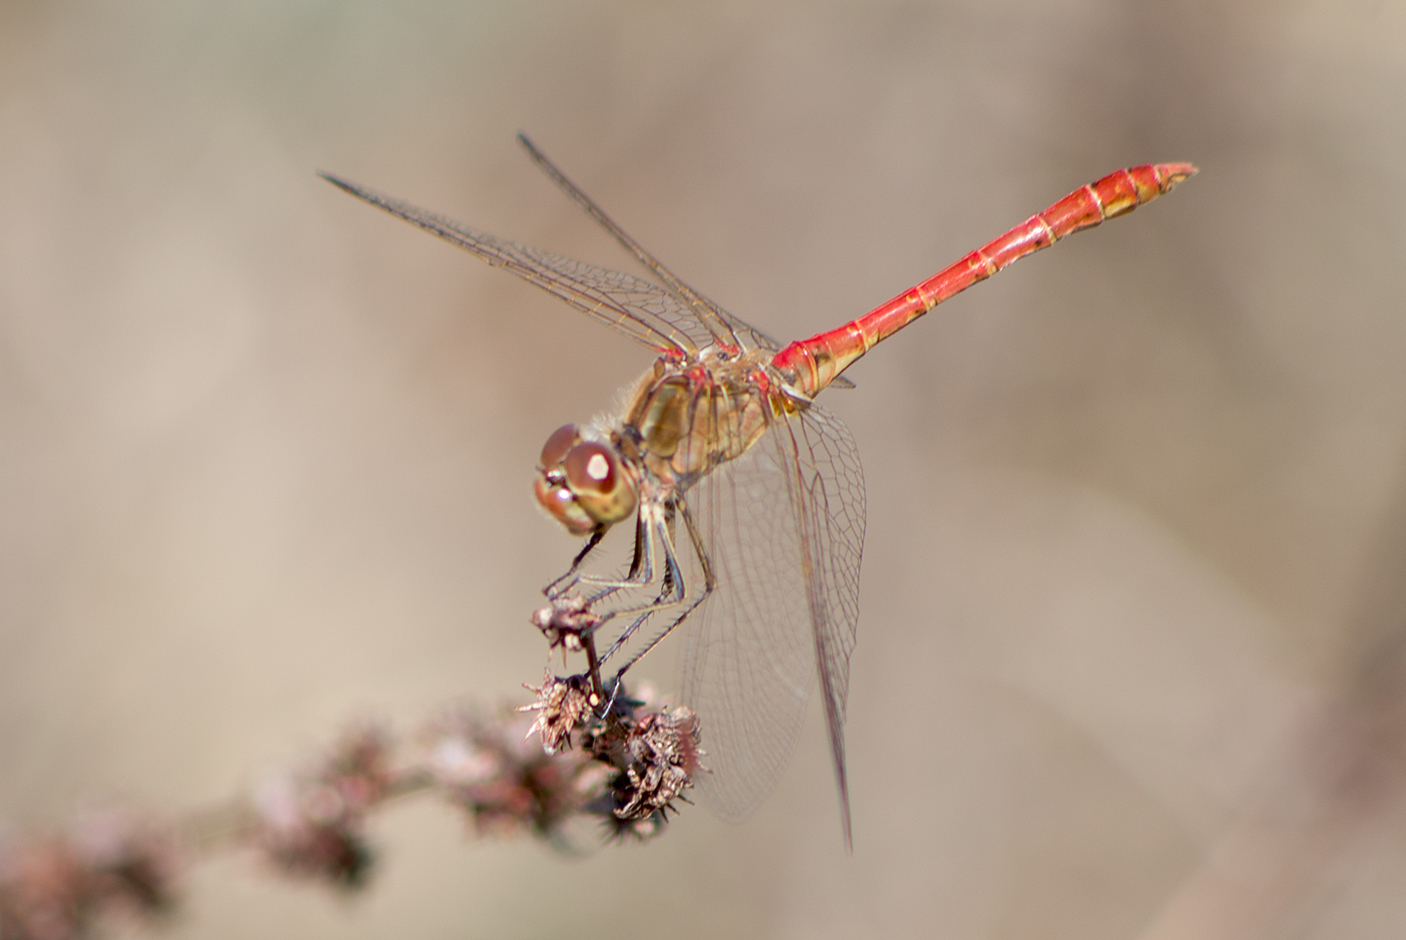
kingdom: Animalia
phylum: Arthropoda
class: Insecta
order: Odonata
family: Libellulidae
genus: Sympetrum
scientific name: Sympetrum meridionale
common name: Southern darter
